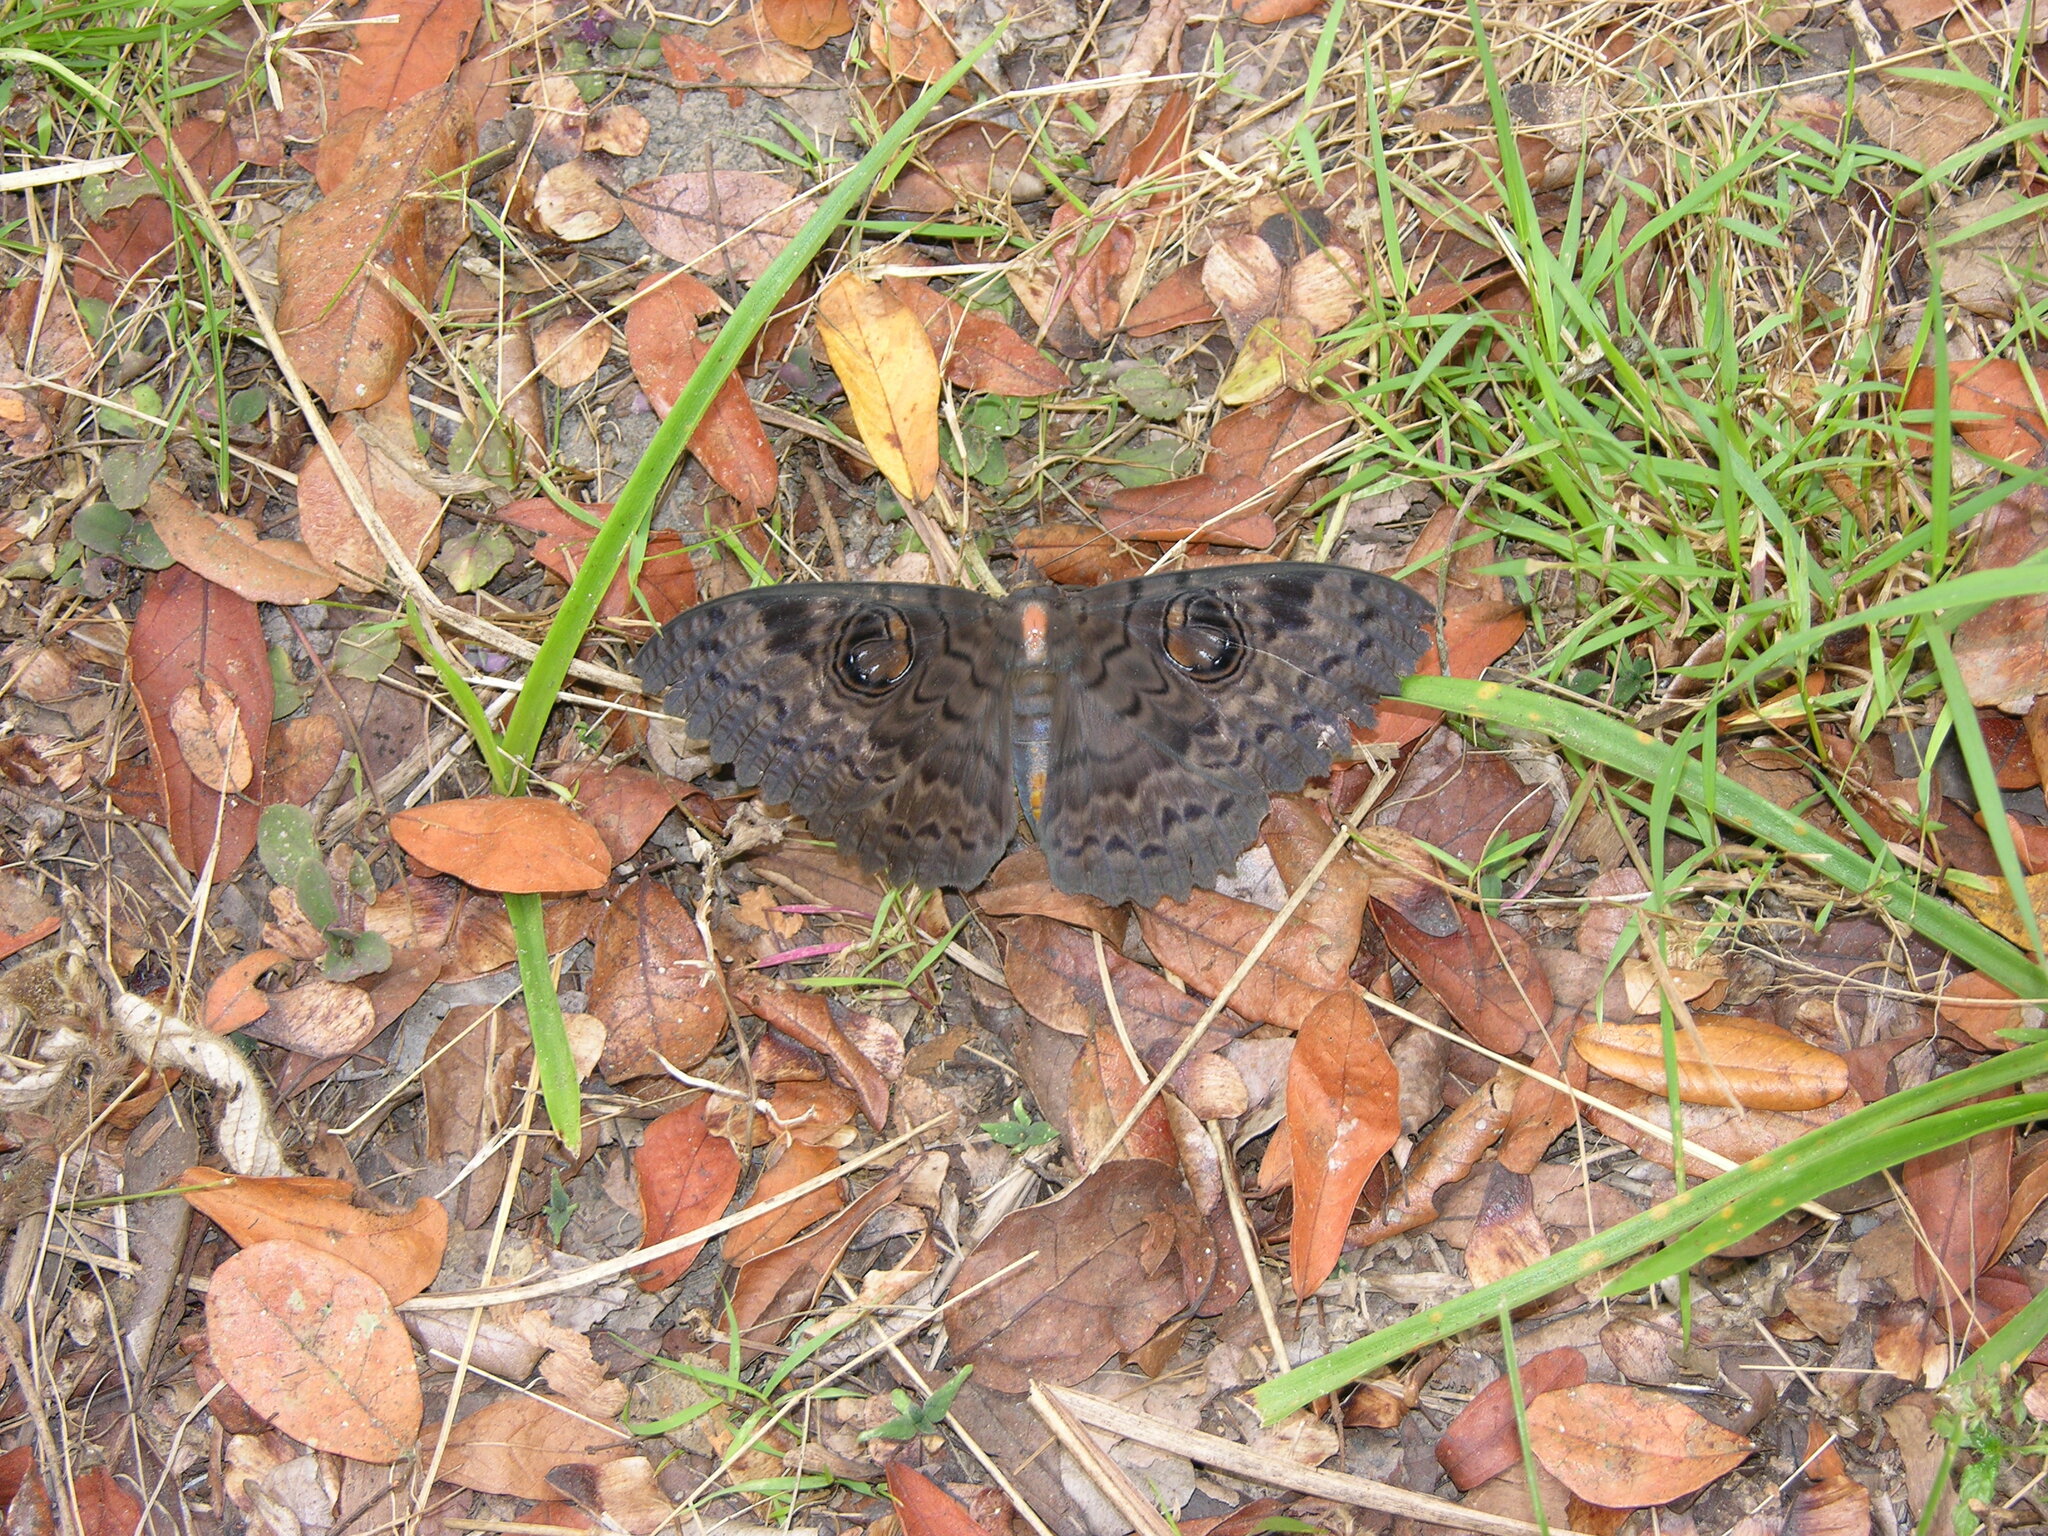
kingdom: Animalia
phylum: Arthropoda
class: Insecta
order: Lepidoptera
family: Erebidae
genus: Erebus
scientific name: Erebus walkeri
